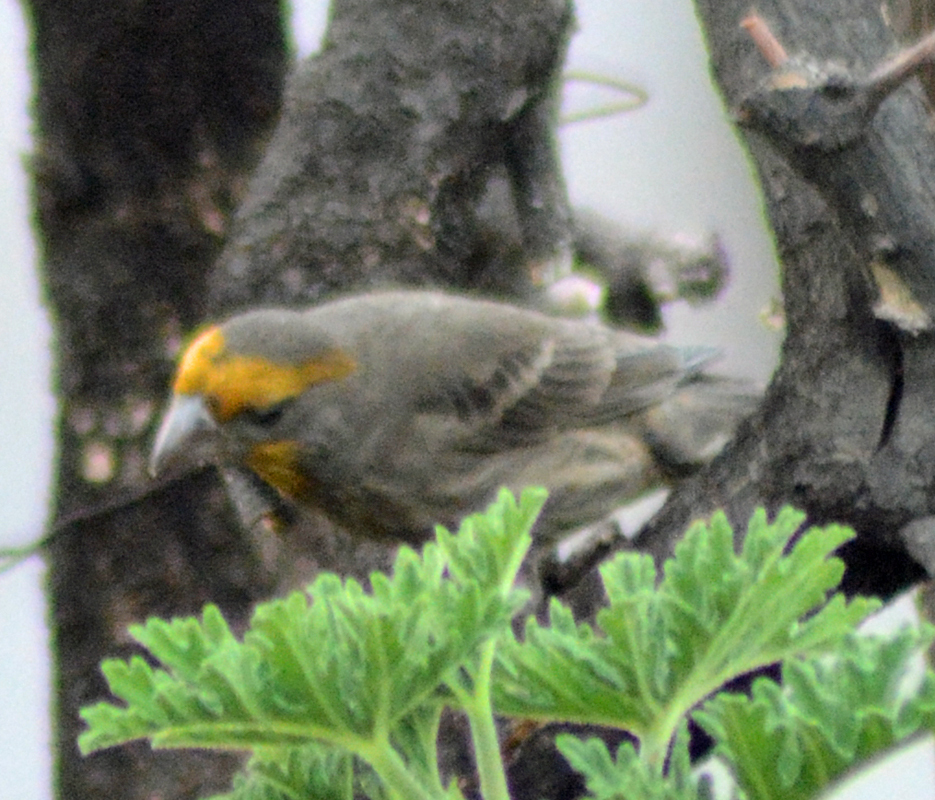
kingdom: Animalia
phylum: Chordata
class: Aves
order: Passeriformes
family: Fringillidae
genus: Haemorhous
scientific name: Haemorhous mexicanus
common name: House finch
